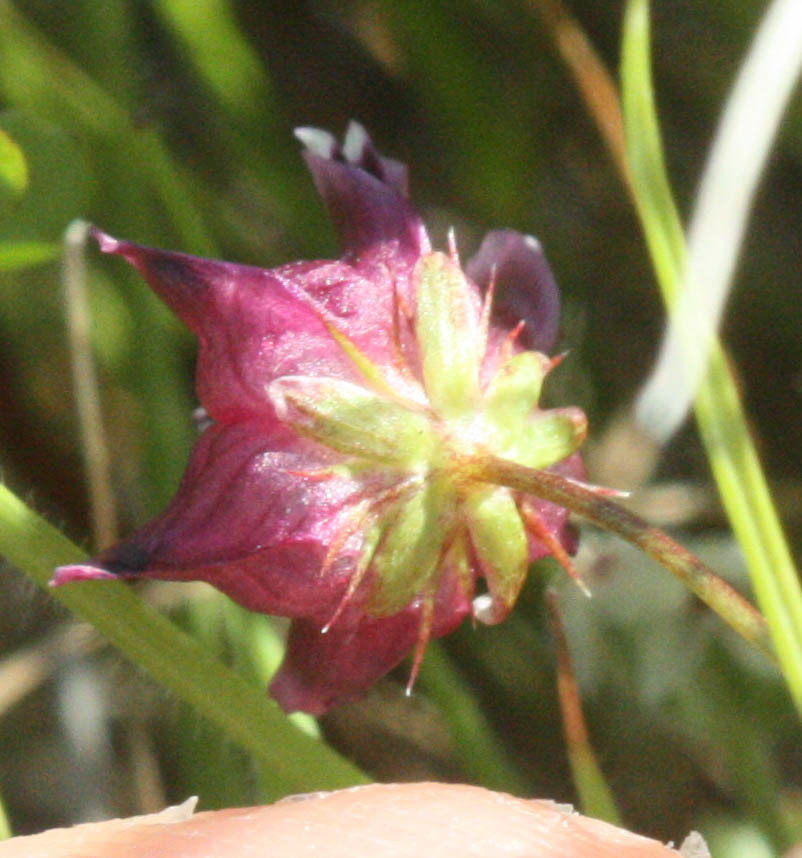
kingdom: Plantae
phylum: Tracheophyta
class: Magnoliopsida
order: Fabales
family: Fabaceae
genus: Trifolium
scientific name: Trifolium depauperatum
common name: Poverty clover
